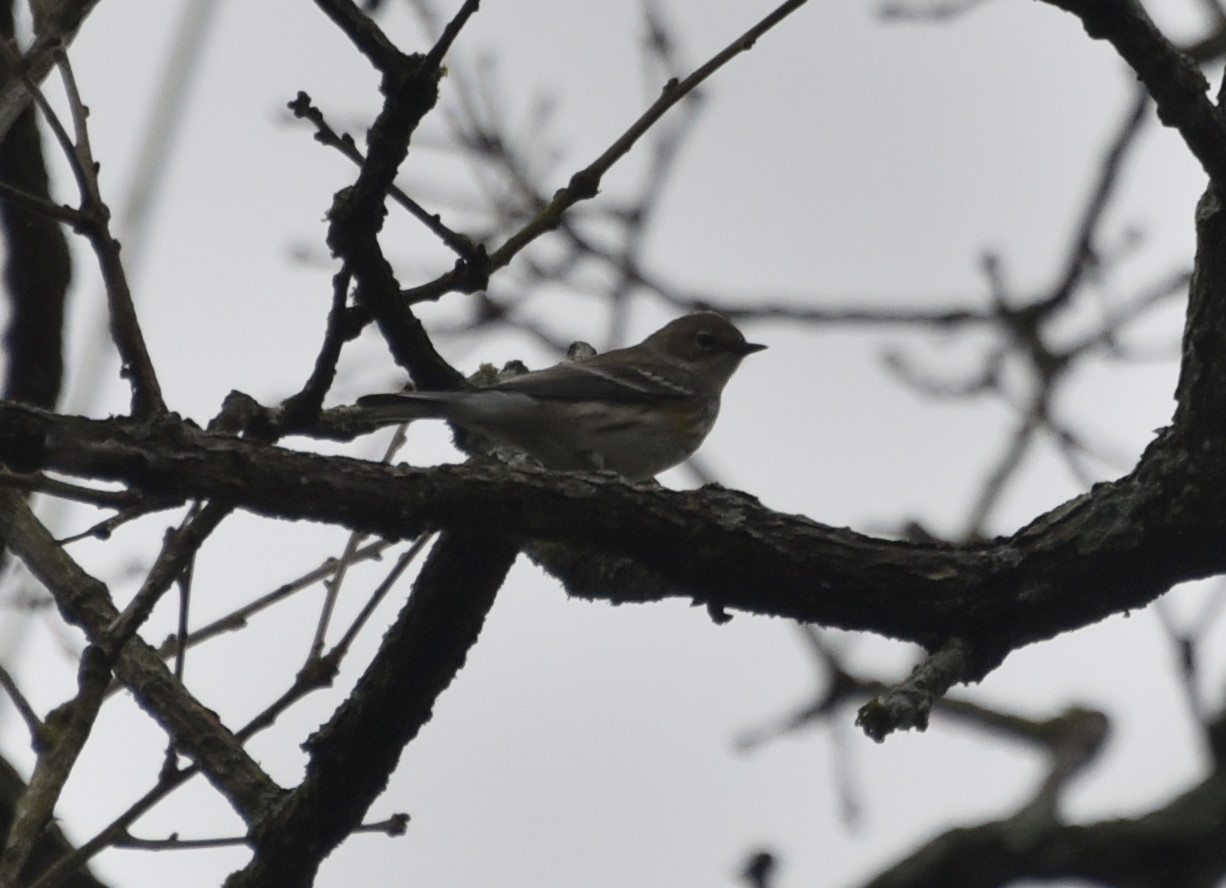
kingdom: Animalia
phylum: Chordata
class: Aves
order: Passeriformes
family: Parulidae
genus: Setophaga
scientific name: Setophaga coronata
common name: Myrtle warbler
